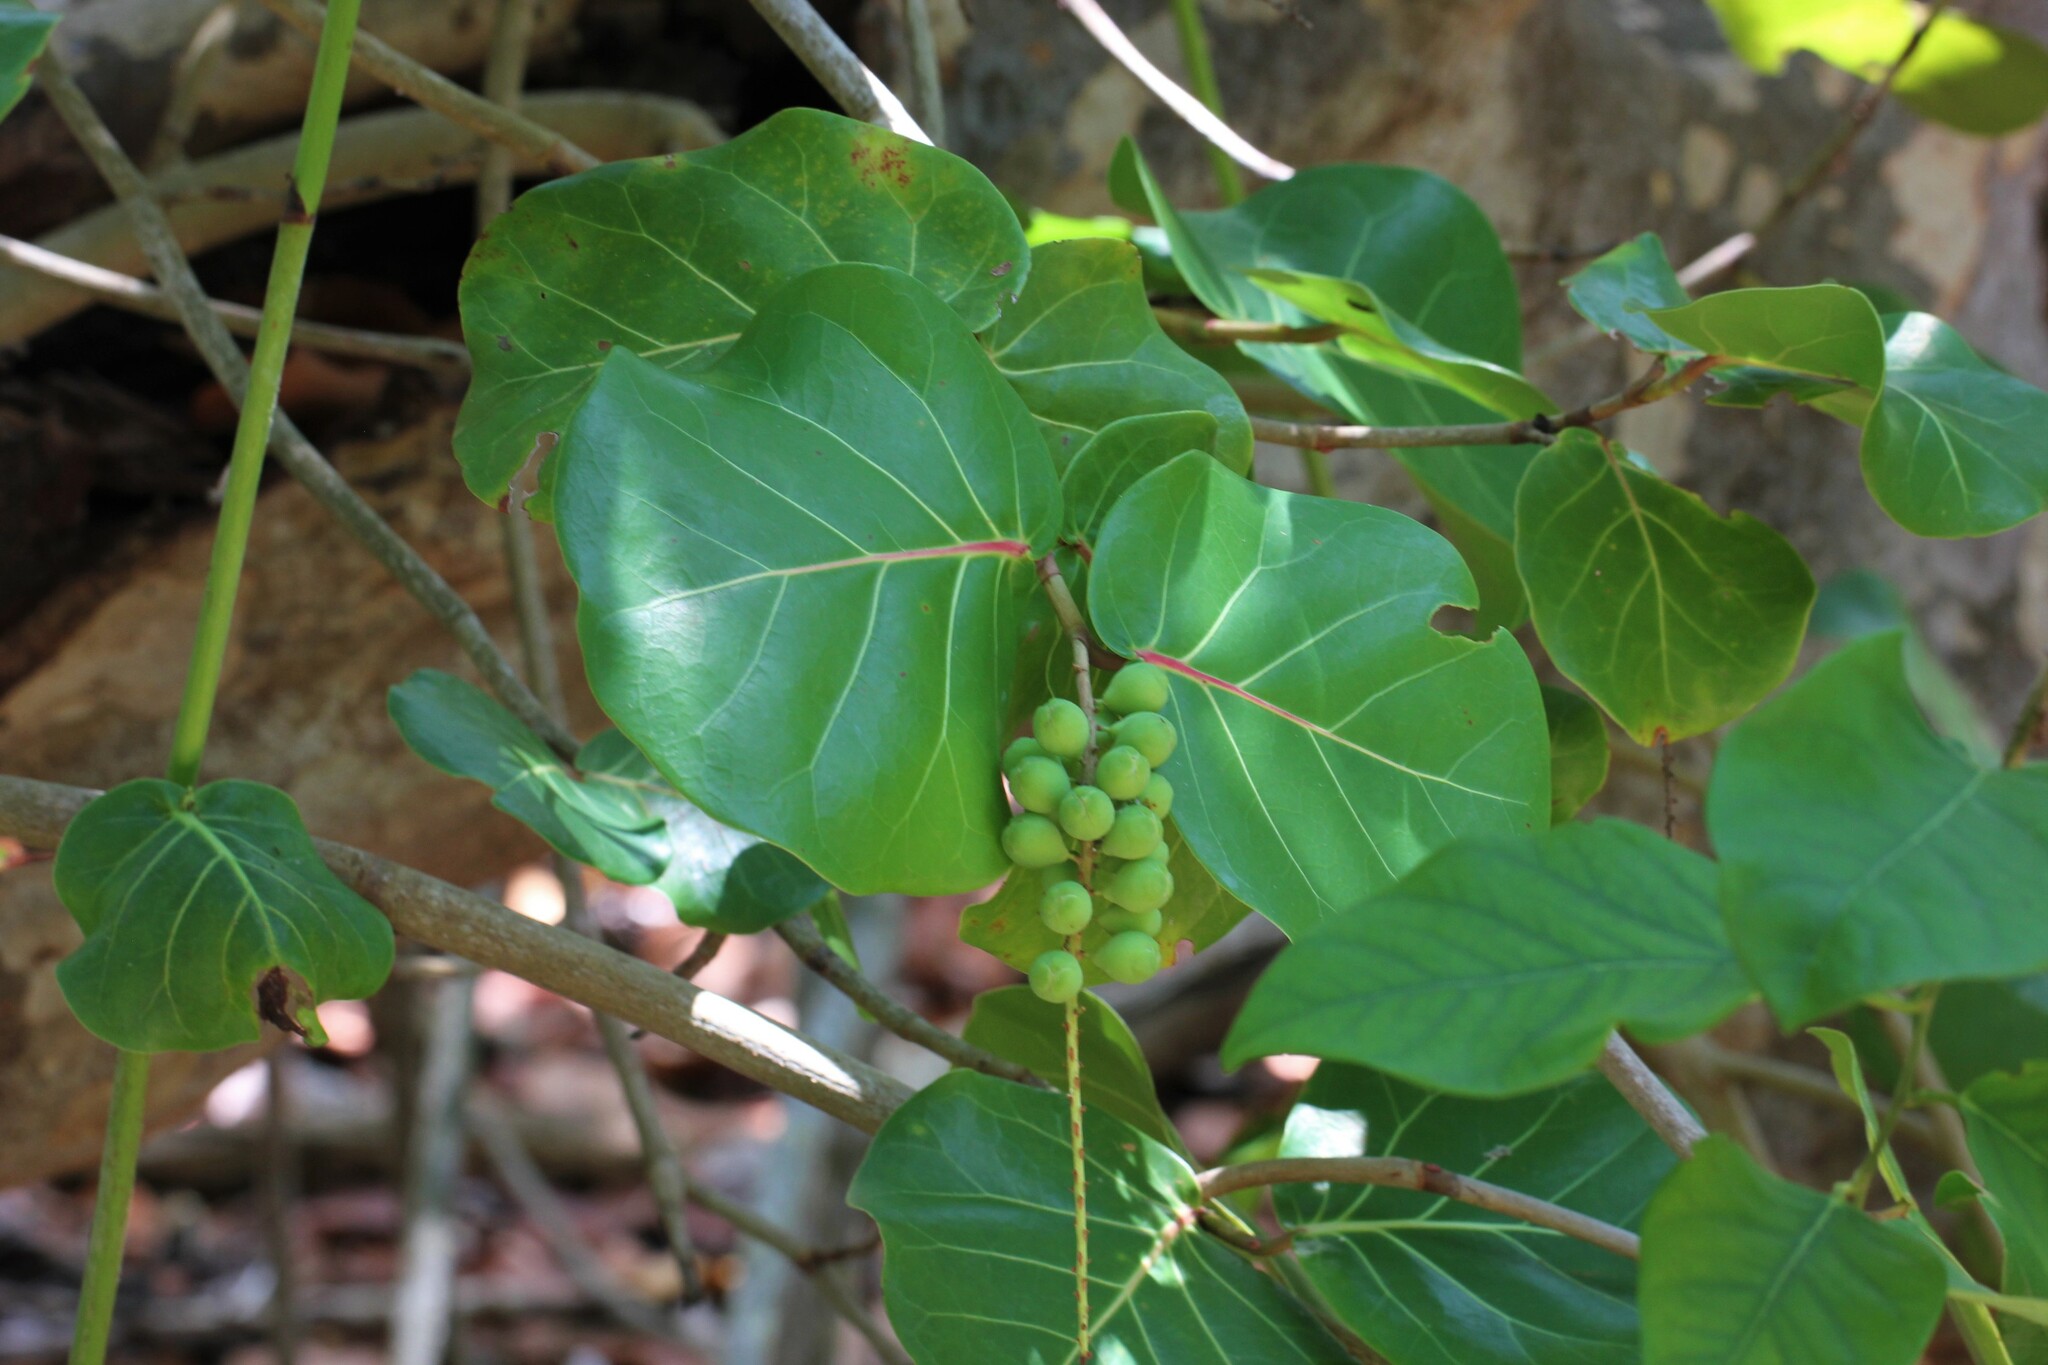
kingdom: Plantae
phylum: Tracheophyta
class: Magnoliopsida
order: Caryophyllales
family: Polygonaceae
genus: Coccoloba
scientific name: Coccoloba uvifera
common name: Seagrape
